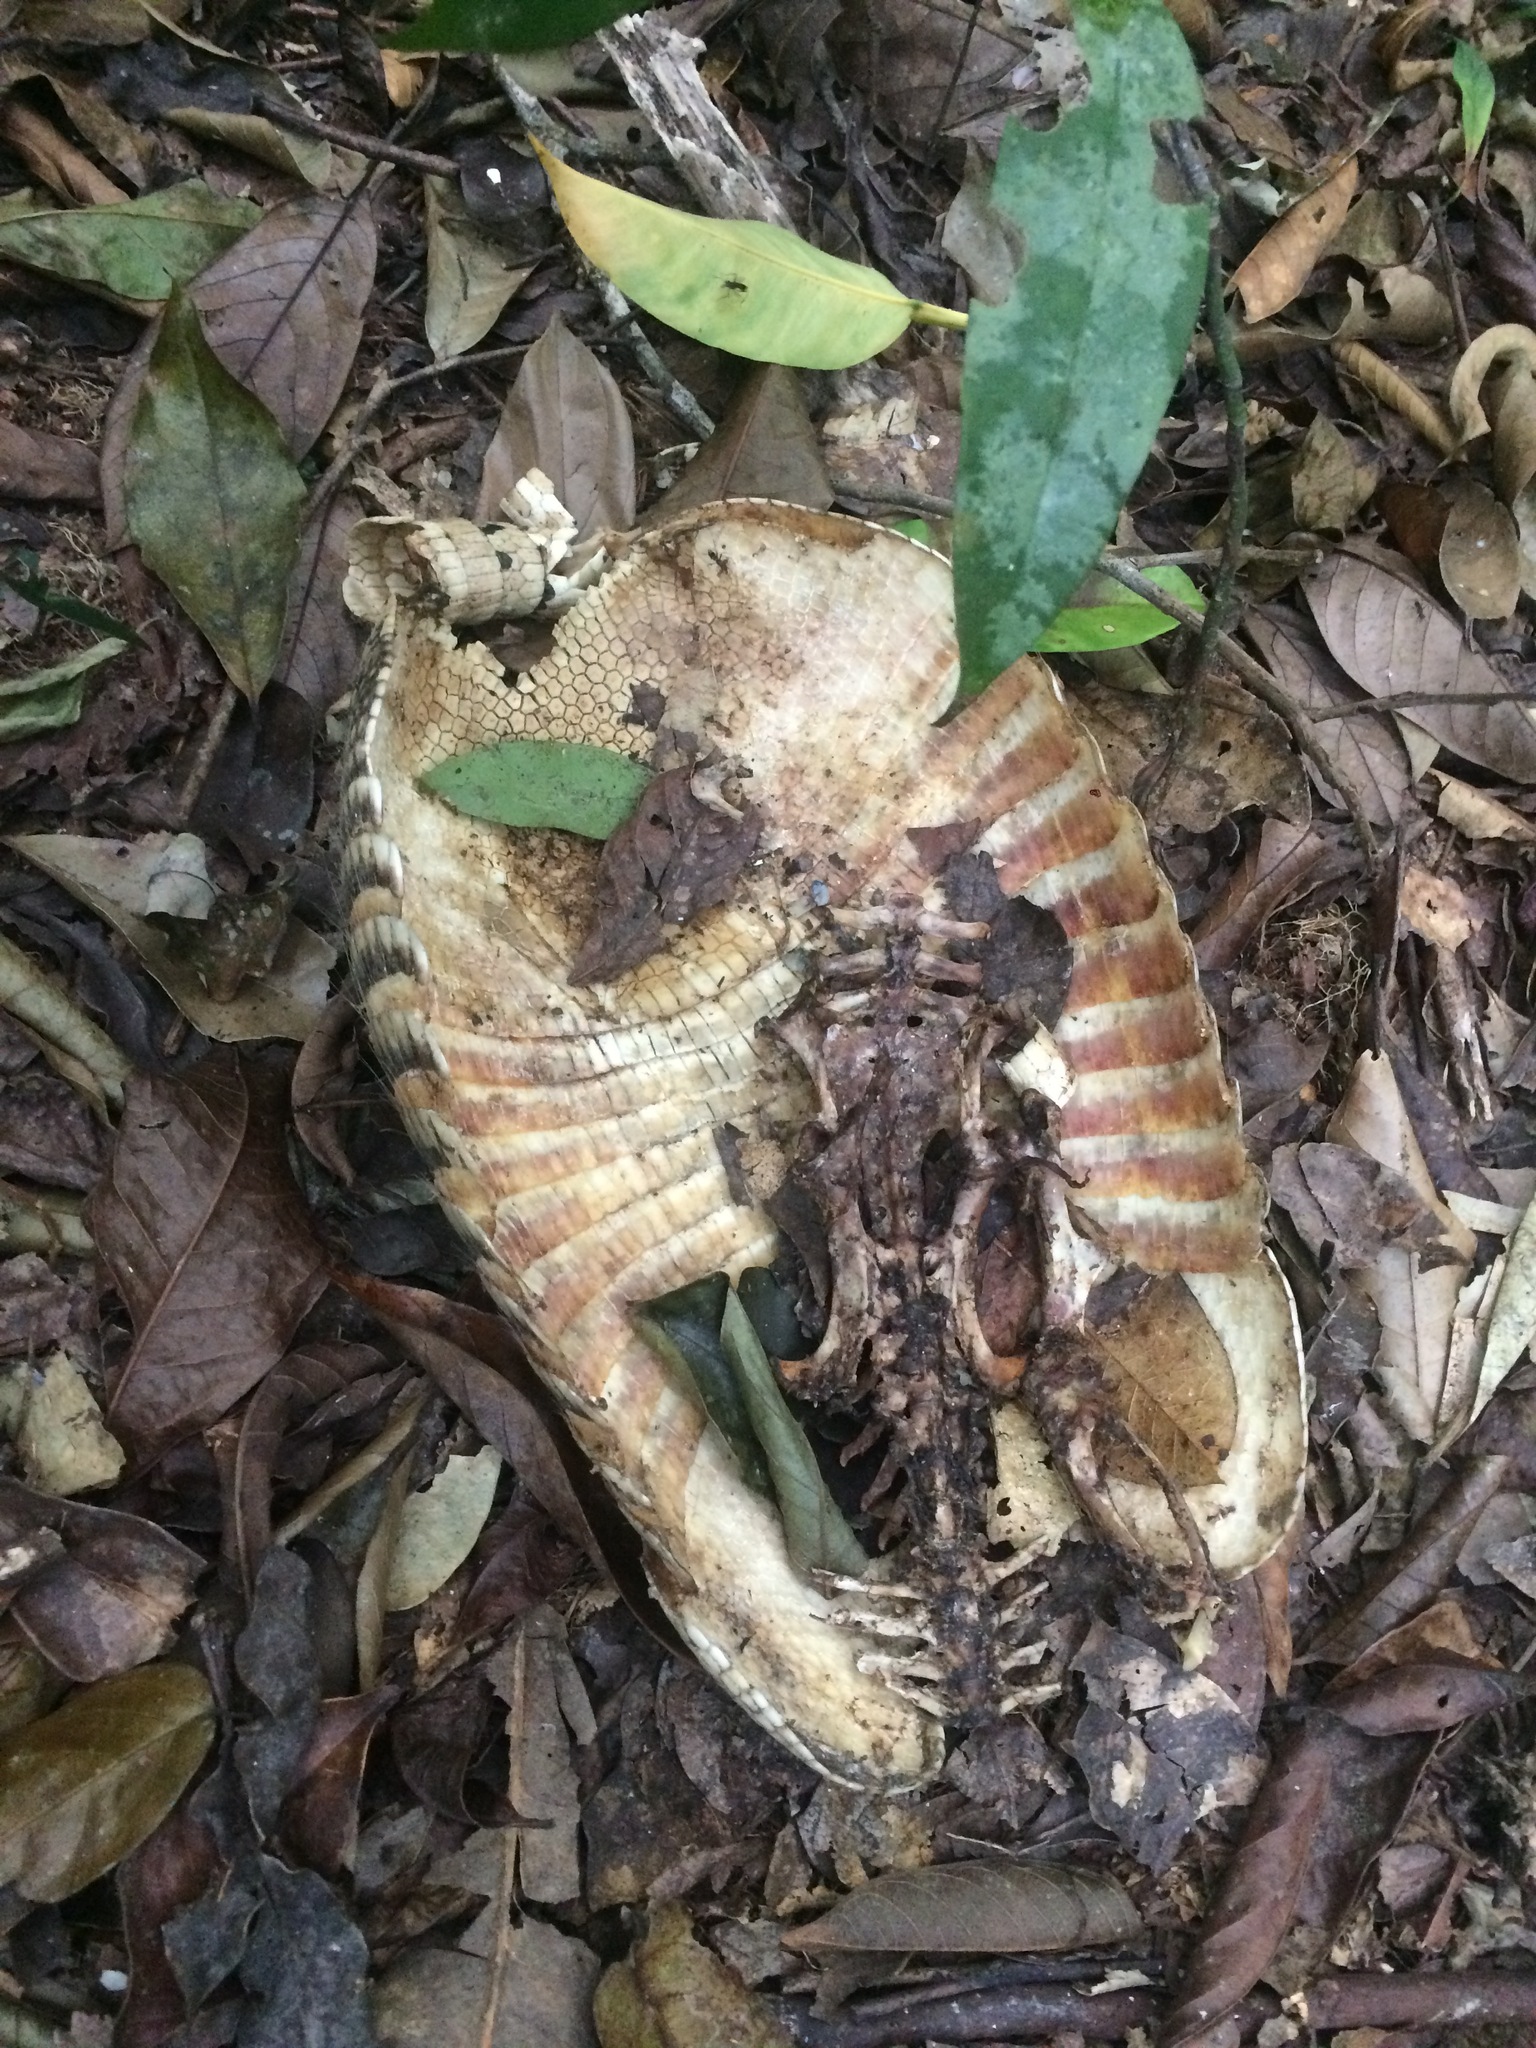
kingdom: Animalia
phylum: Chordata
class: Mammalia
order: Cingulata
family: Dasypodidae
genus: Dasypus
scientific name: Dasypus novemcinctus
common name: Nine-banded armadillo
